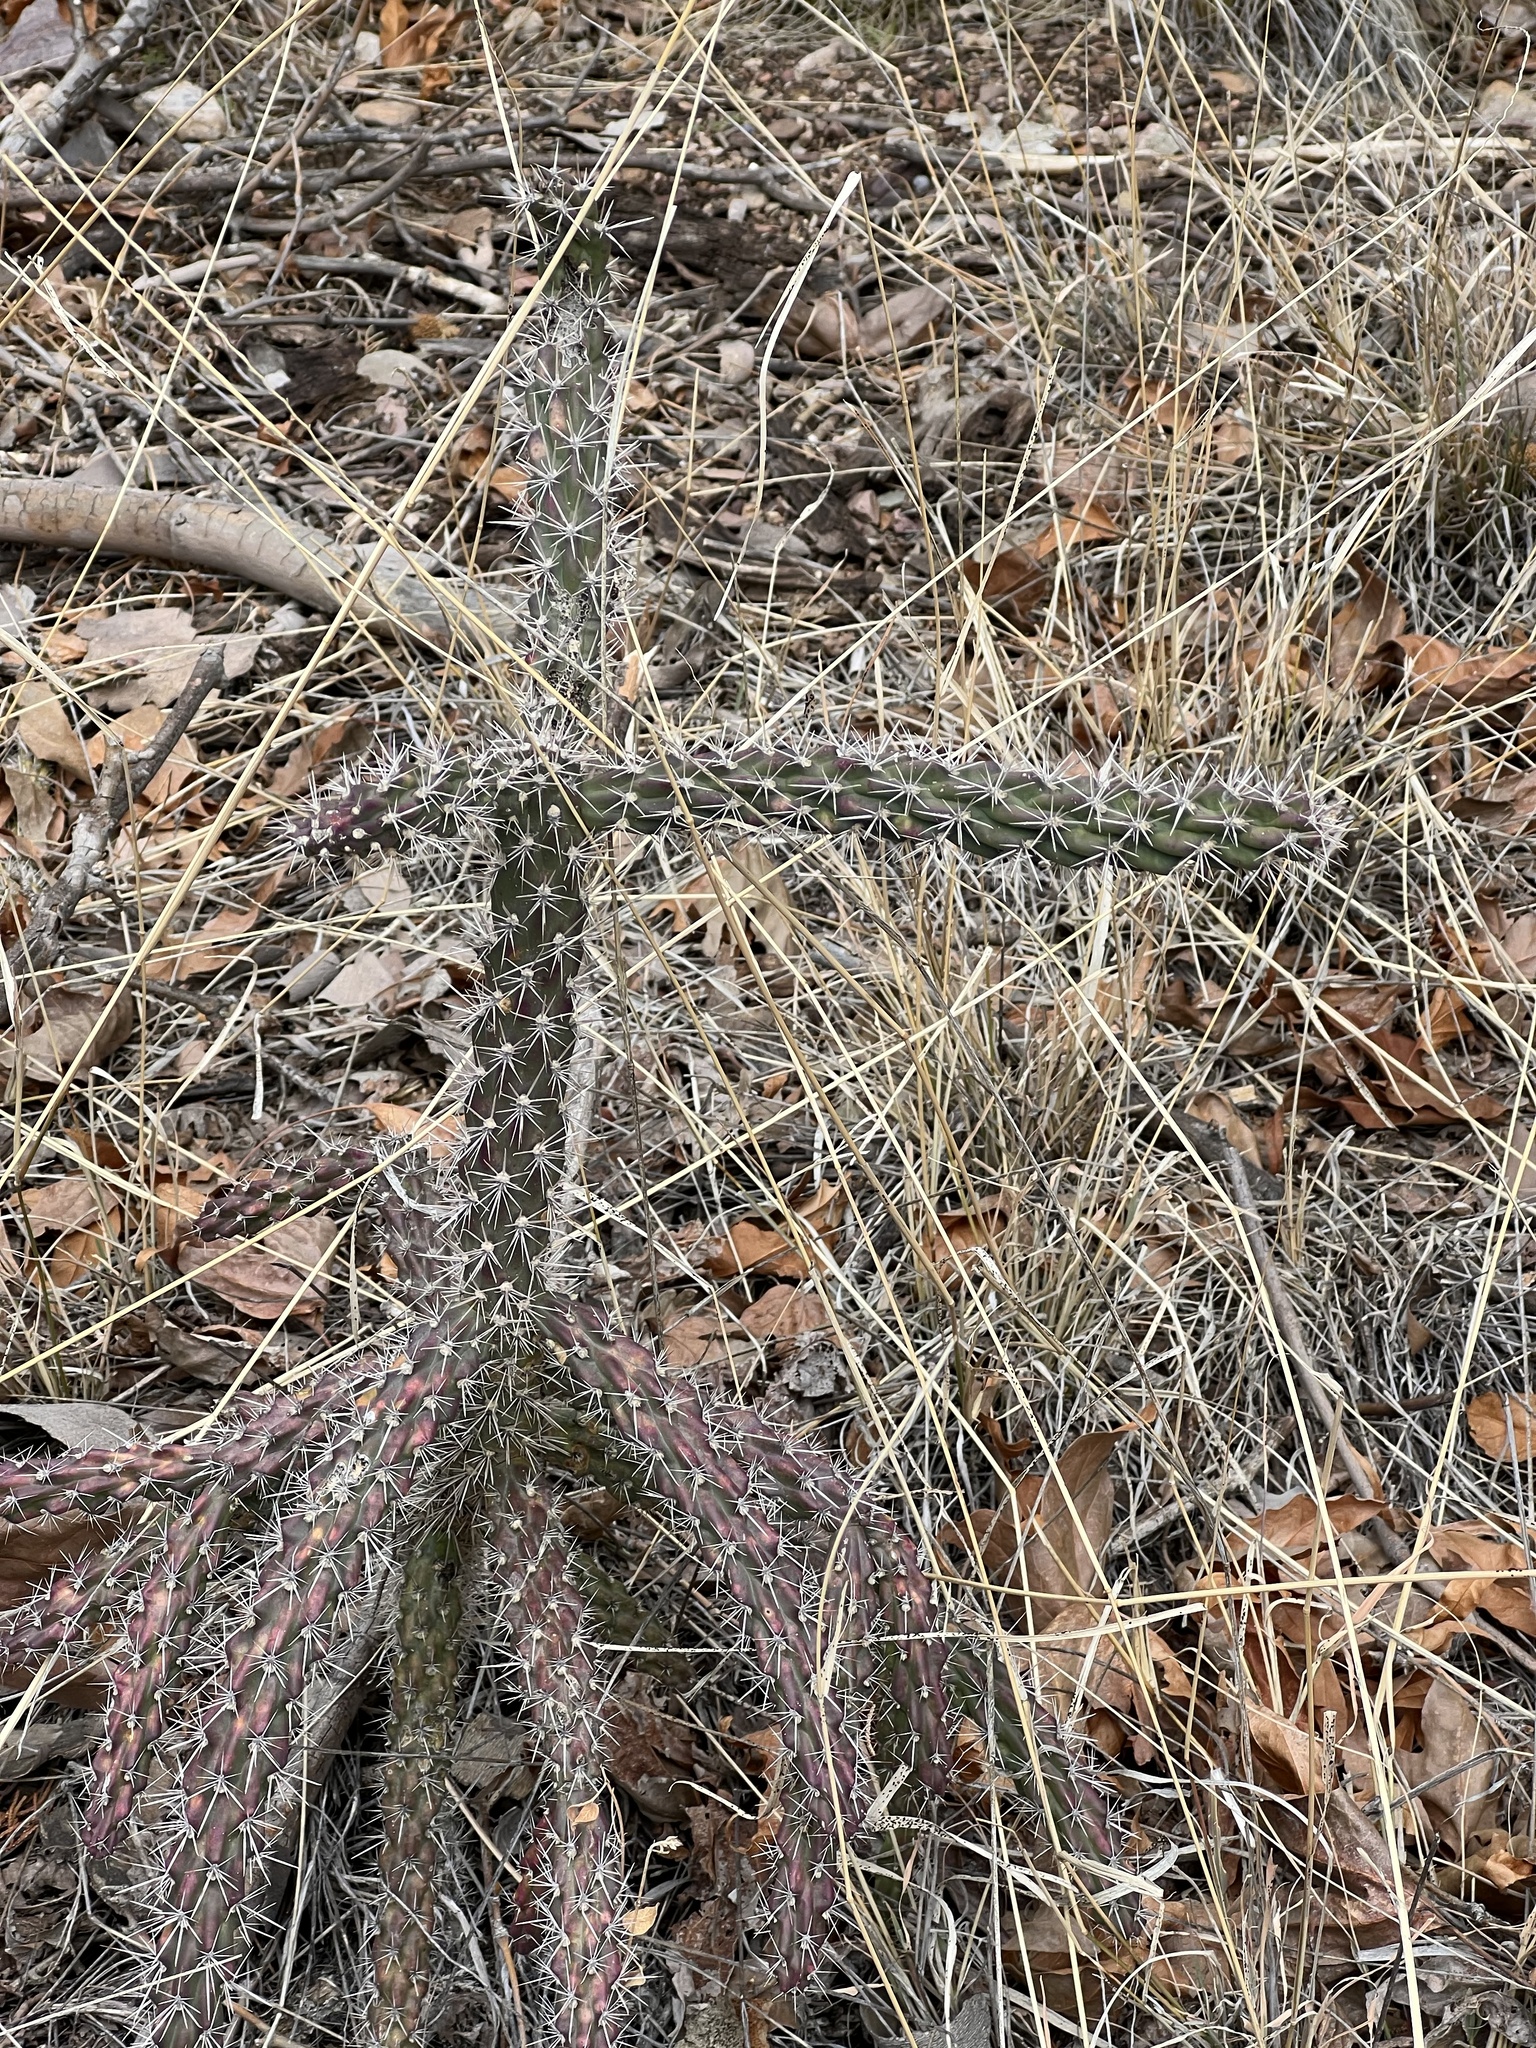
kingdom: Plantae
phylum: Tracheophyta
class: Magnoliopsida
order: Caryophyllales
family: Cactaceae
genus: Cylindropuntia
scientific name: Cylindropuntia imbricata
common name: Candelabrum cactus
